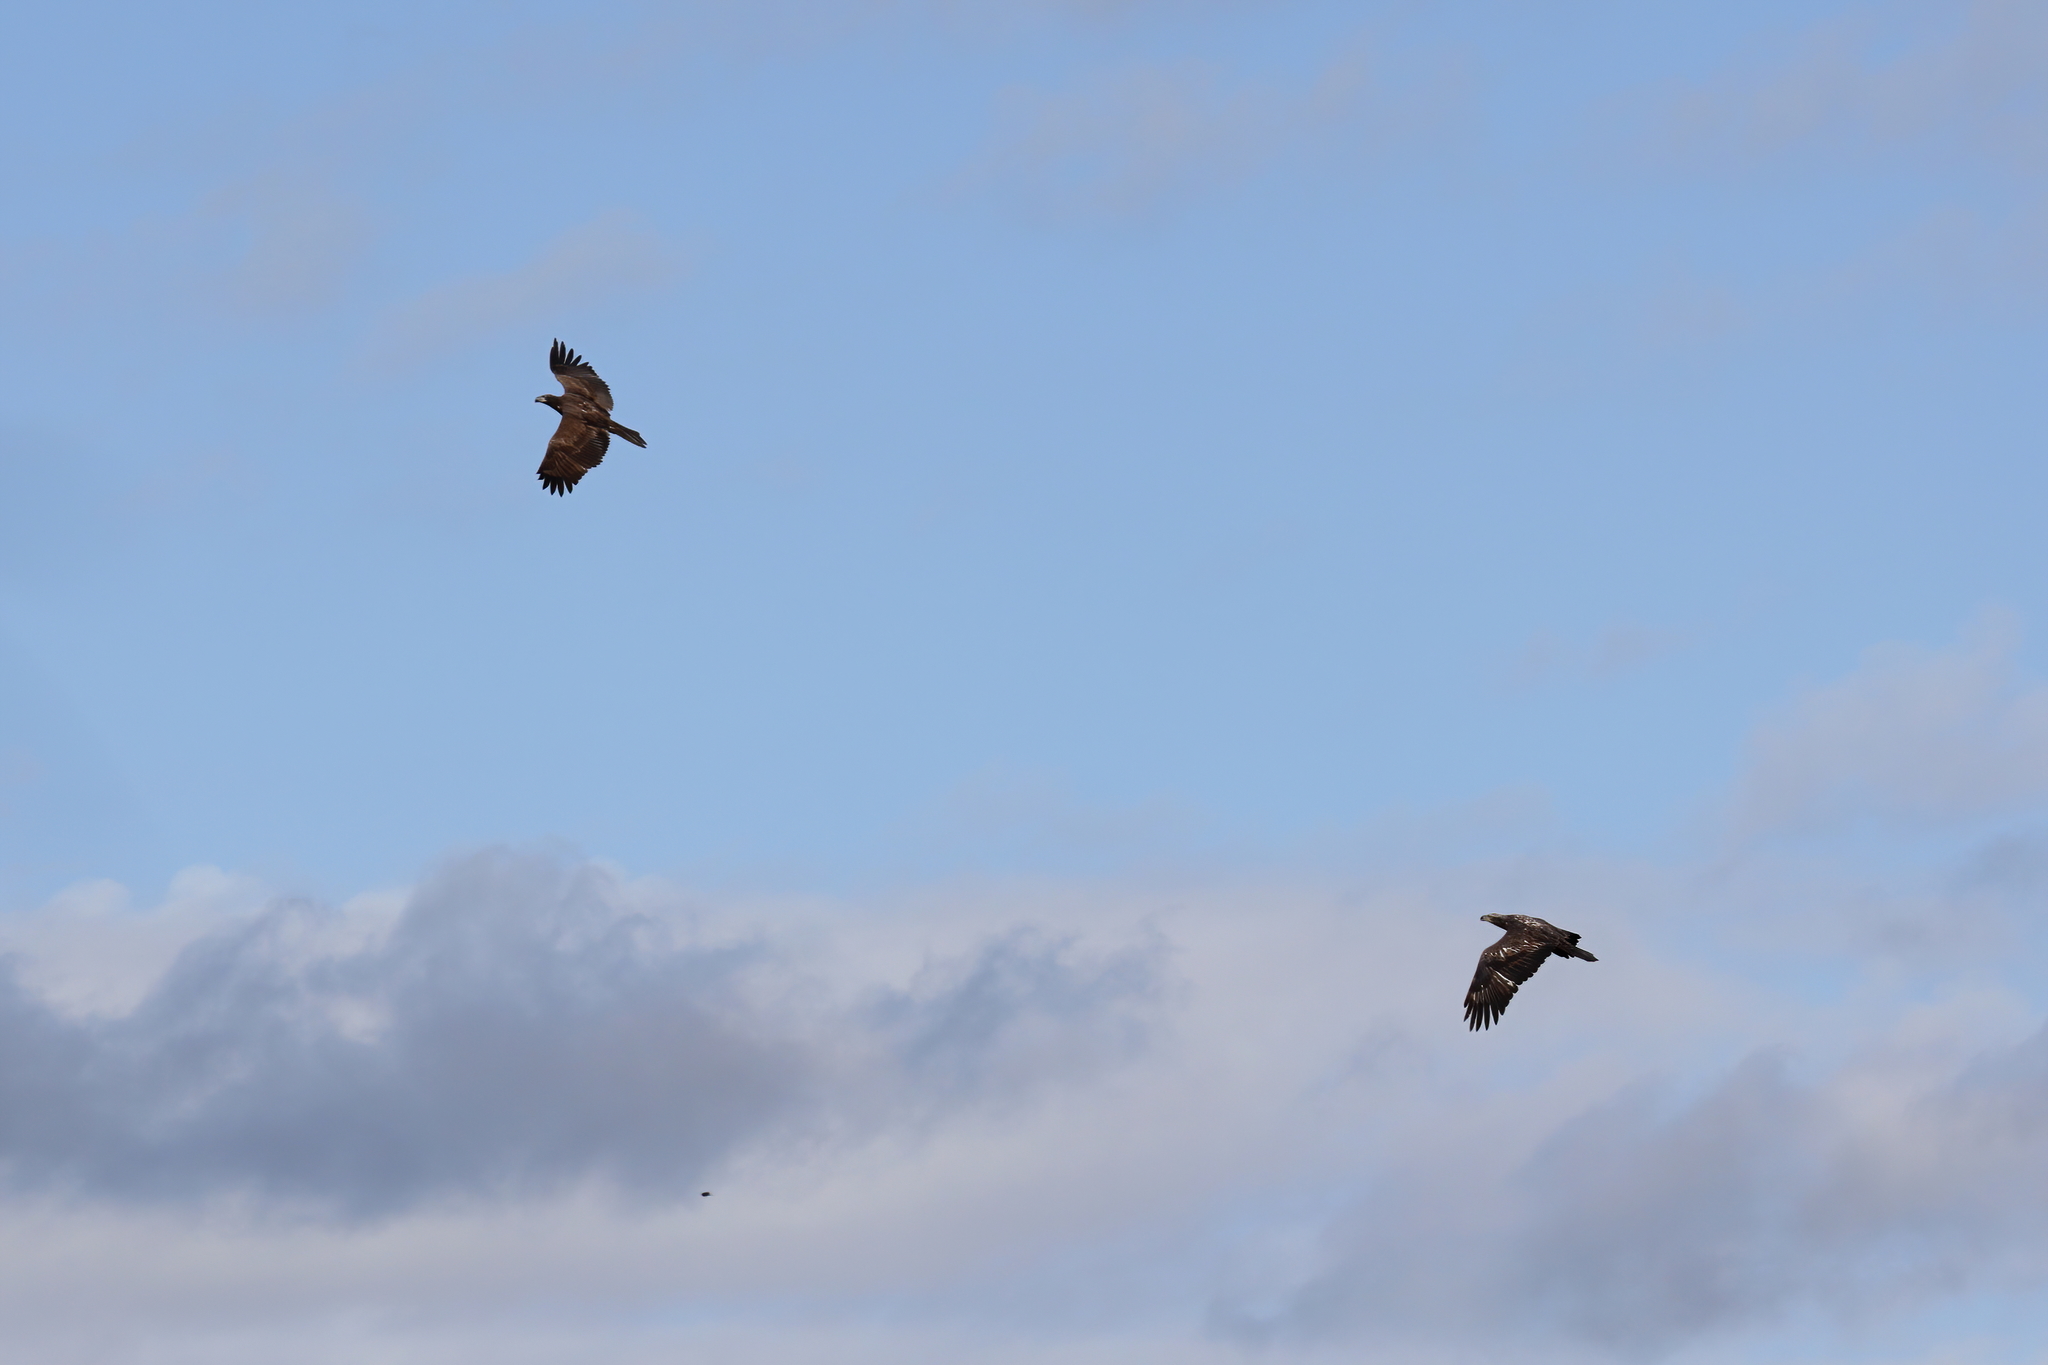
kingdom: Animalia
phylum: Chordata
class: Aves
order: Accipitriformes
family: Accipitridae
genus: Haliaeetus
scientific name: Haliaeetus leucocephalus
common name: Bald eagle
